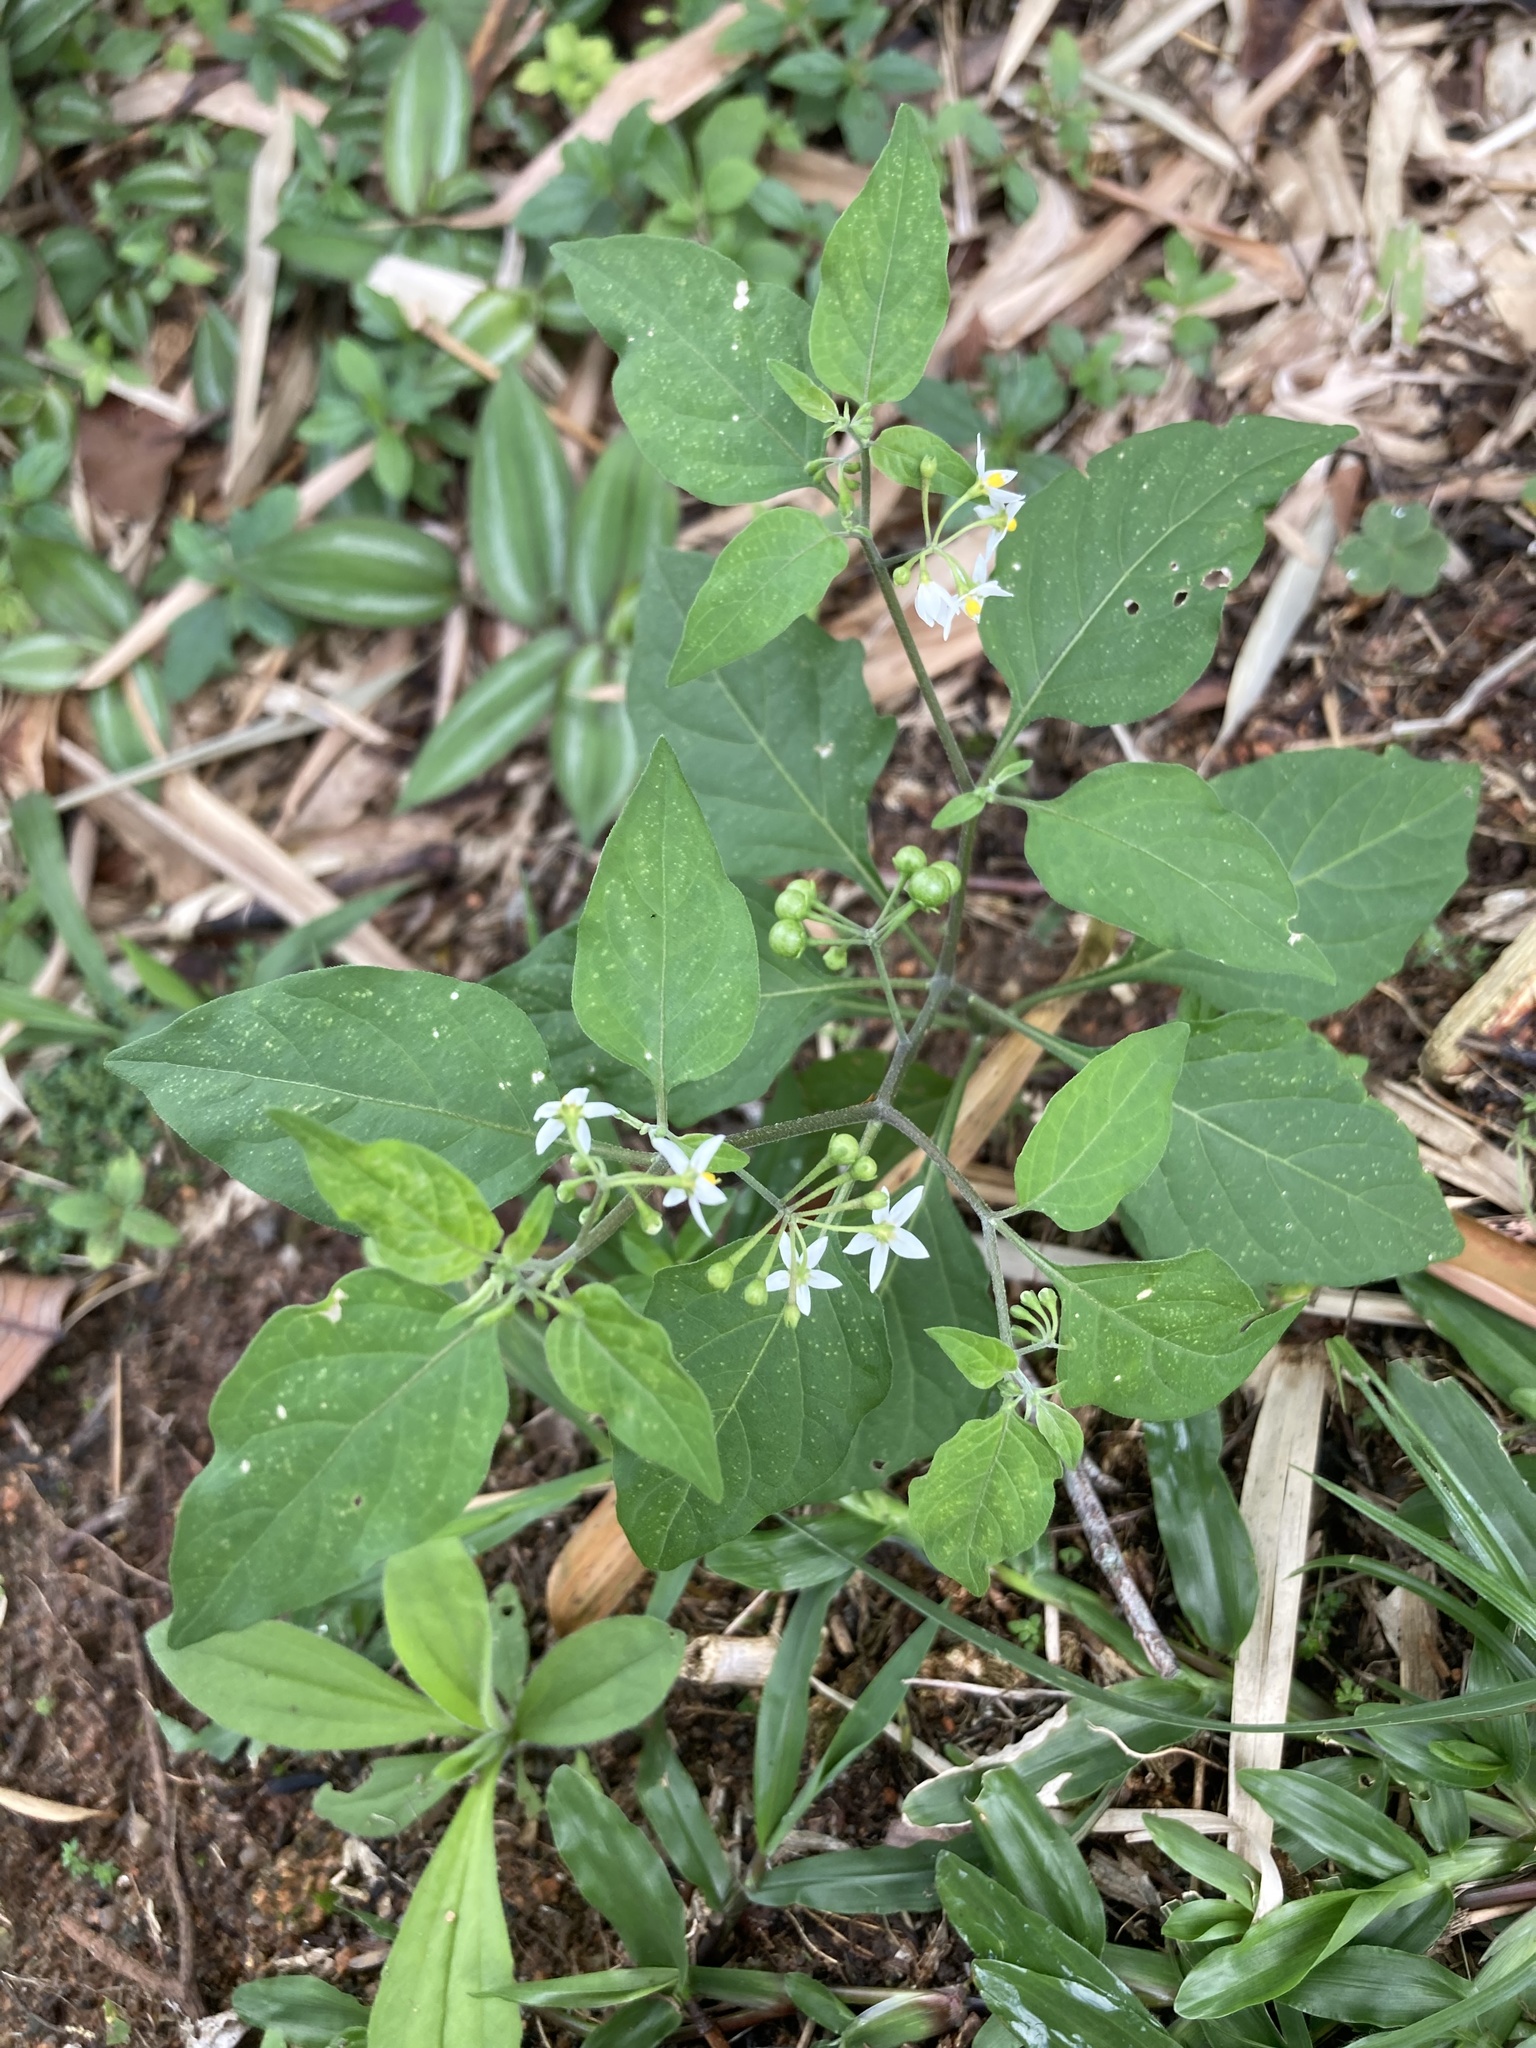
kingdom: Plantae
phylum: Tracheophyta
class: Magnoliopsida
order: Solanales
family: Solanaceae
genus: Solanum
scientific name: Solanum americanum
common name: American black nightshade
